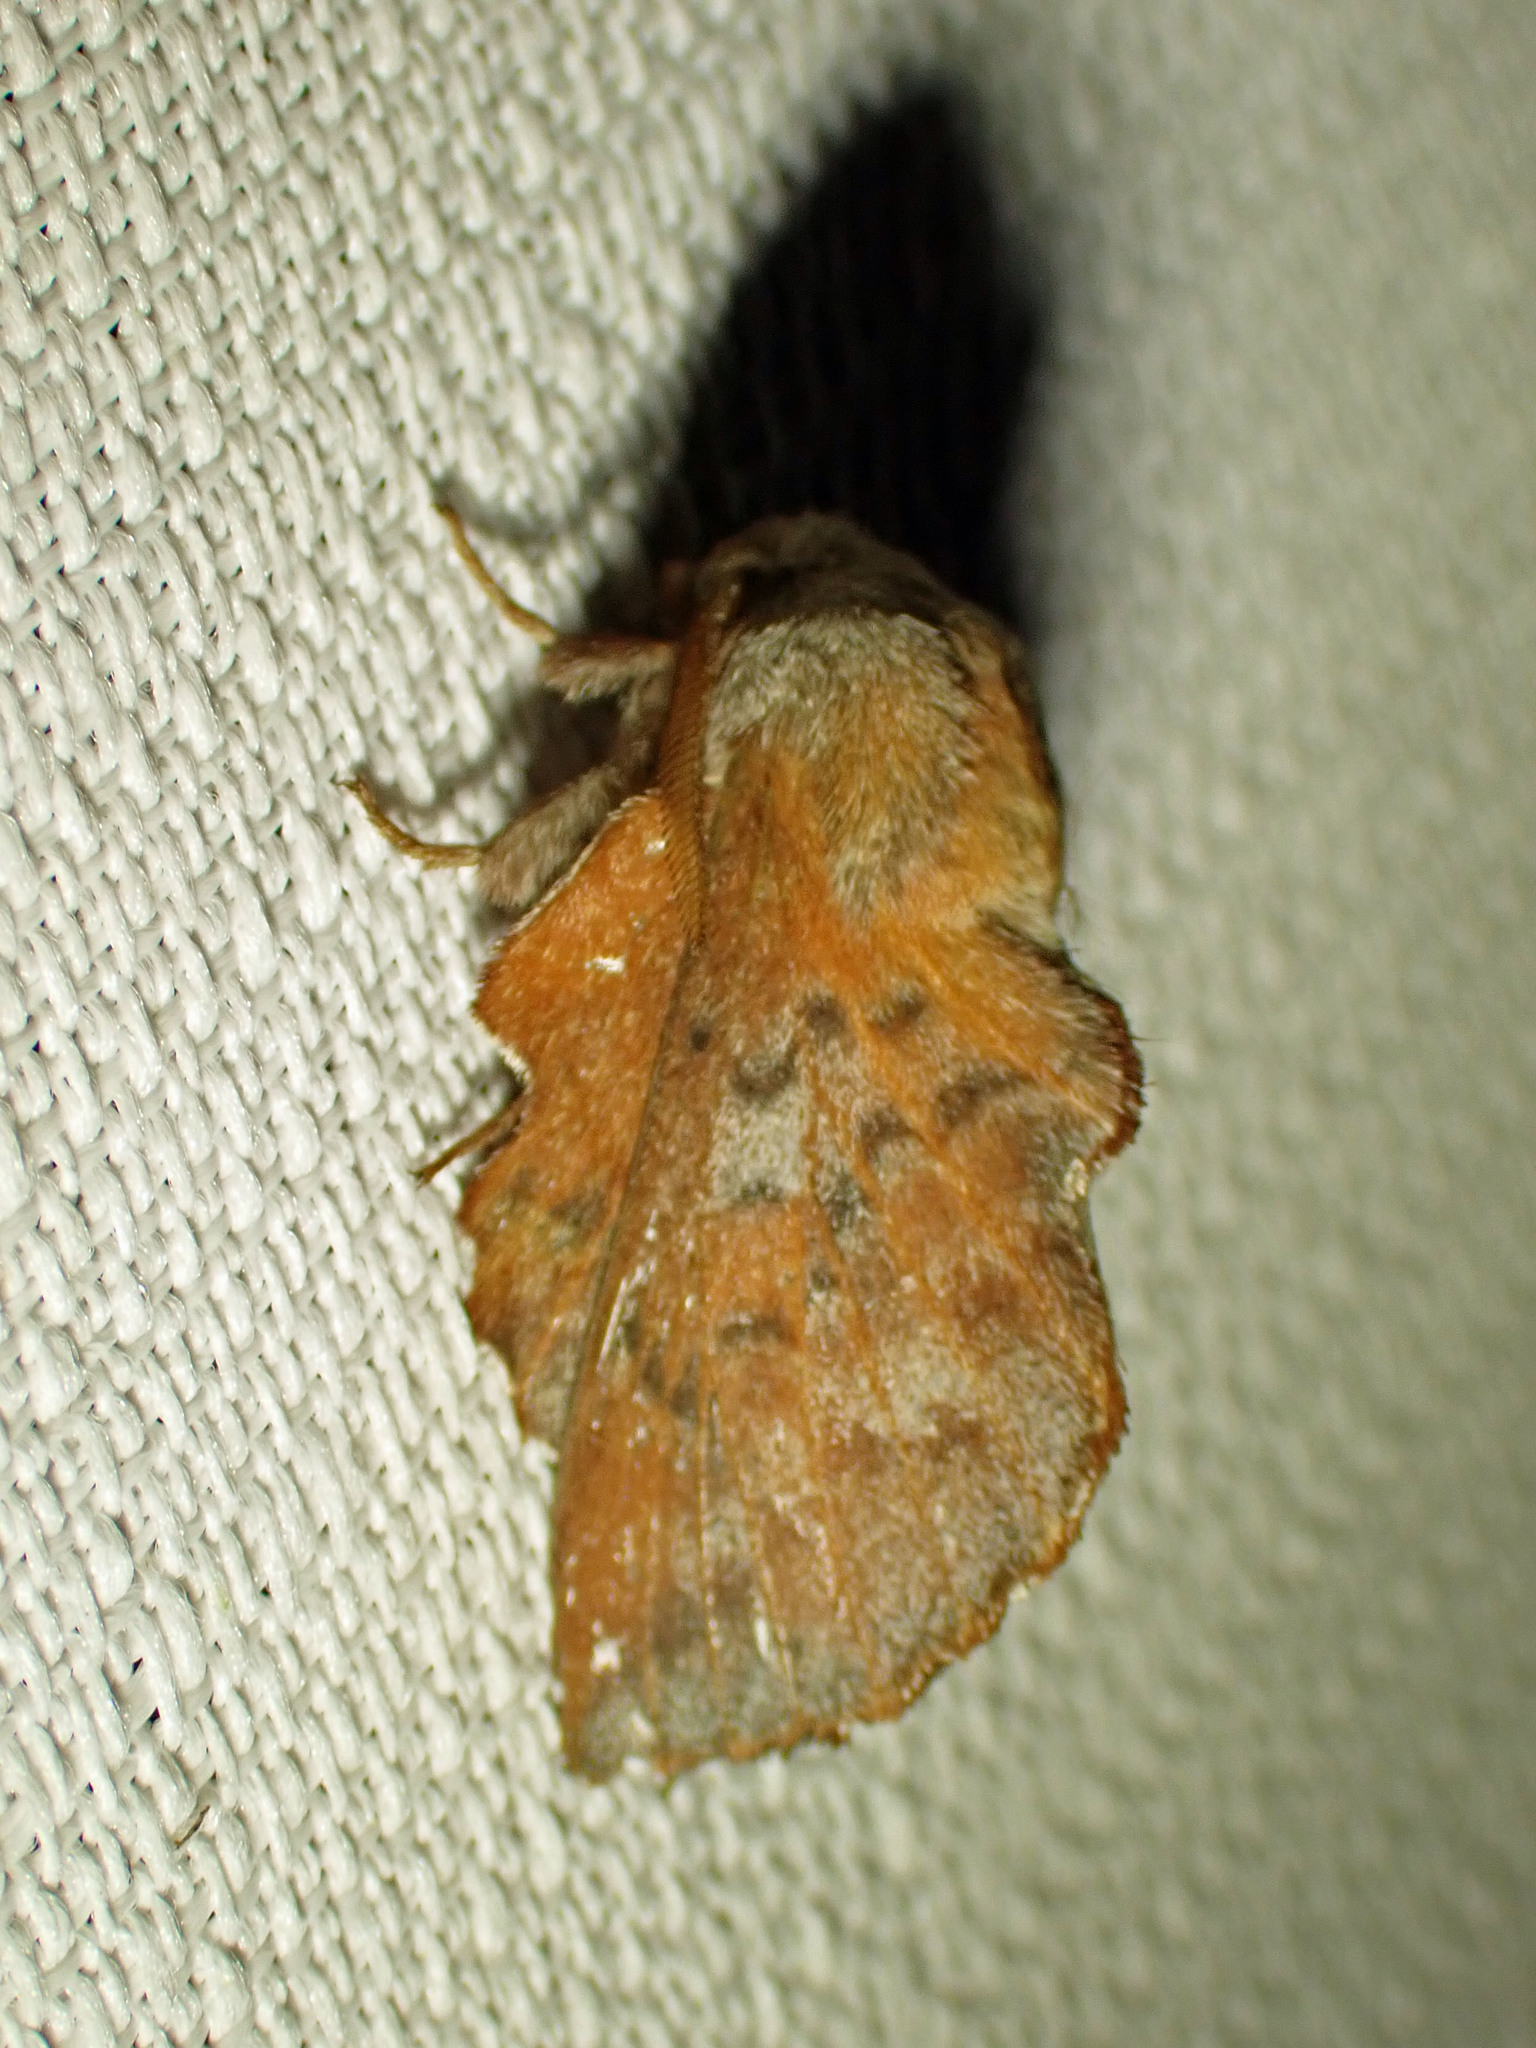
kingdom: Animalia
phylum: Arthropoda
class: Insecta
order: Lepidoptera
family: Lasiocampidae
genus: Phyllodesma
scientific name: Phyllodesma americana
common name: American lappet moth
